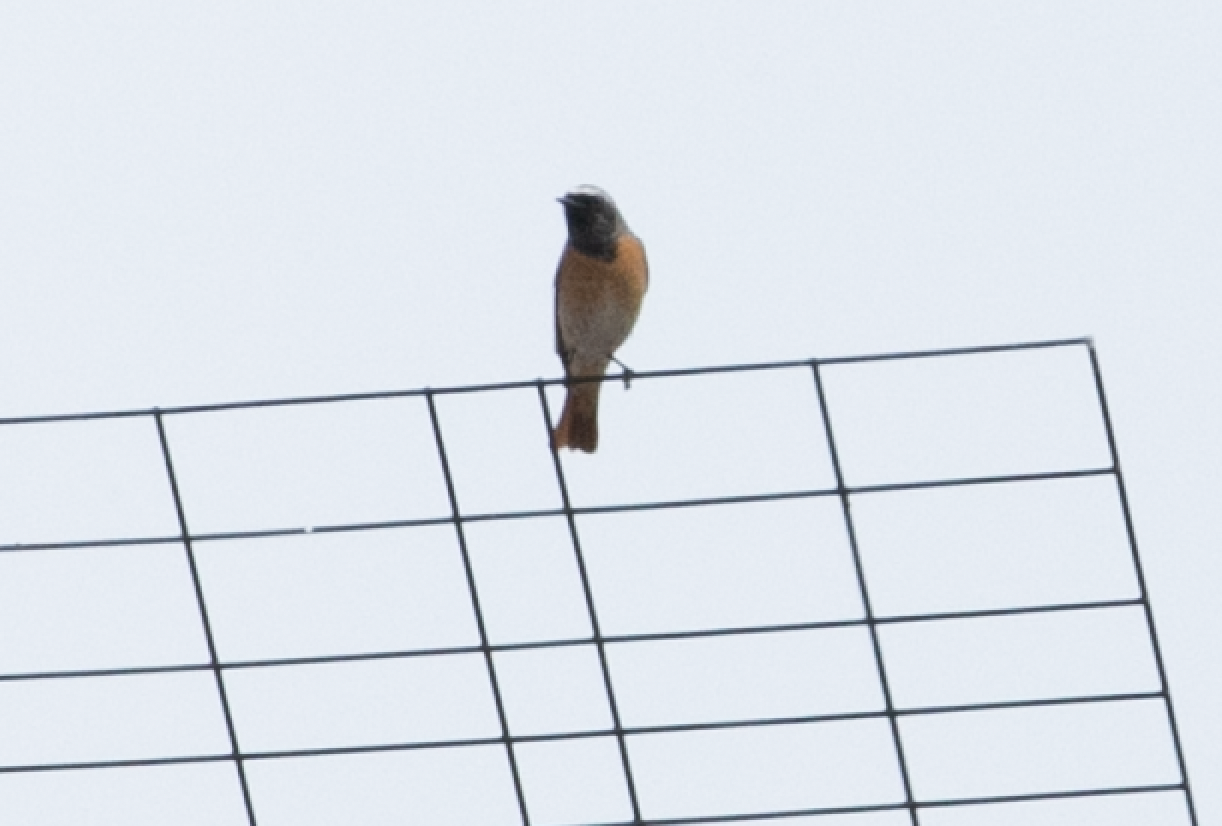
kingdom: Animalia
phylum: Chordata
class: Aves
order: Passeriformes
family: Muscicapidae
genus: Phoenicurus
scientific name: Phoenicurus phoenicurus
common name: Common redstart
